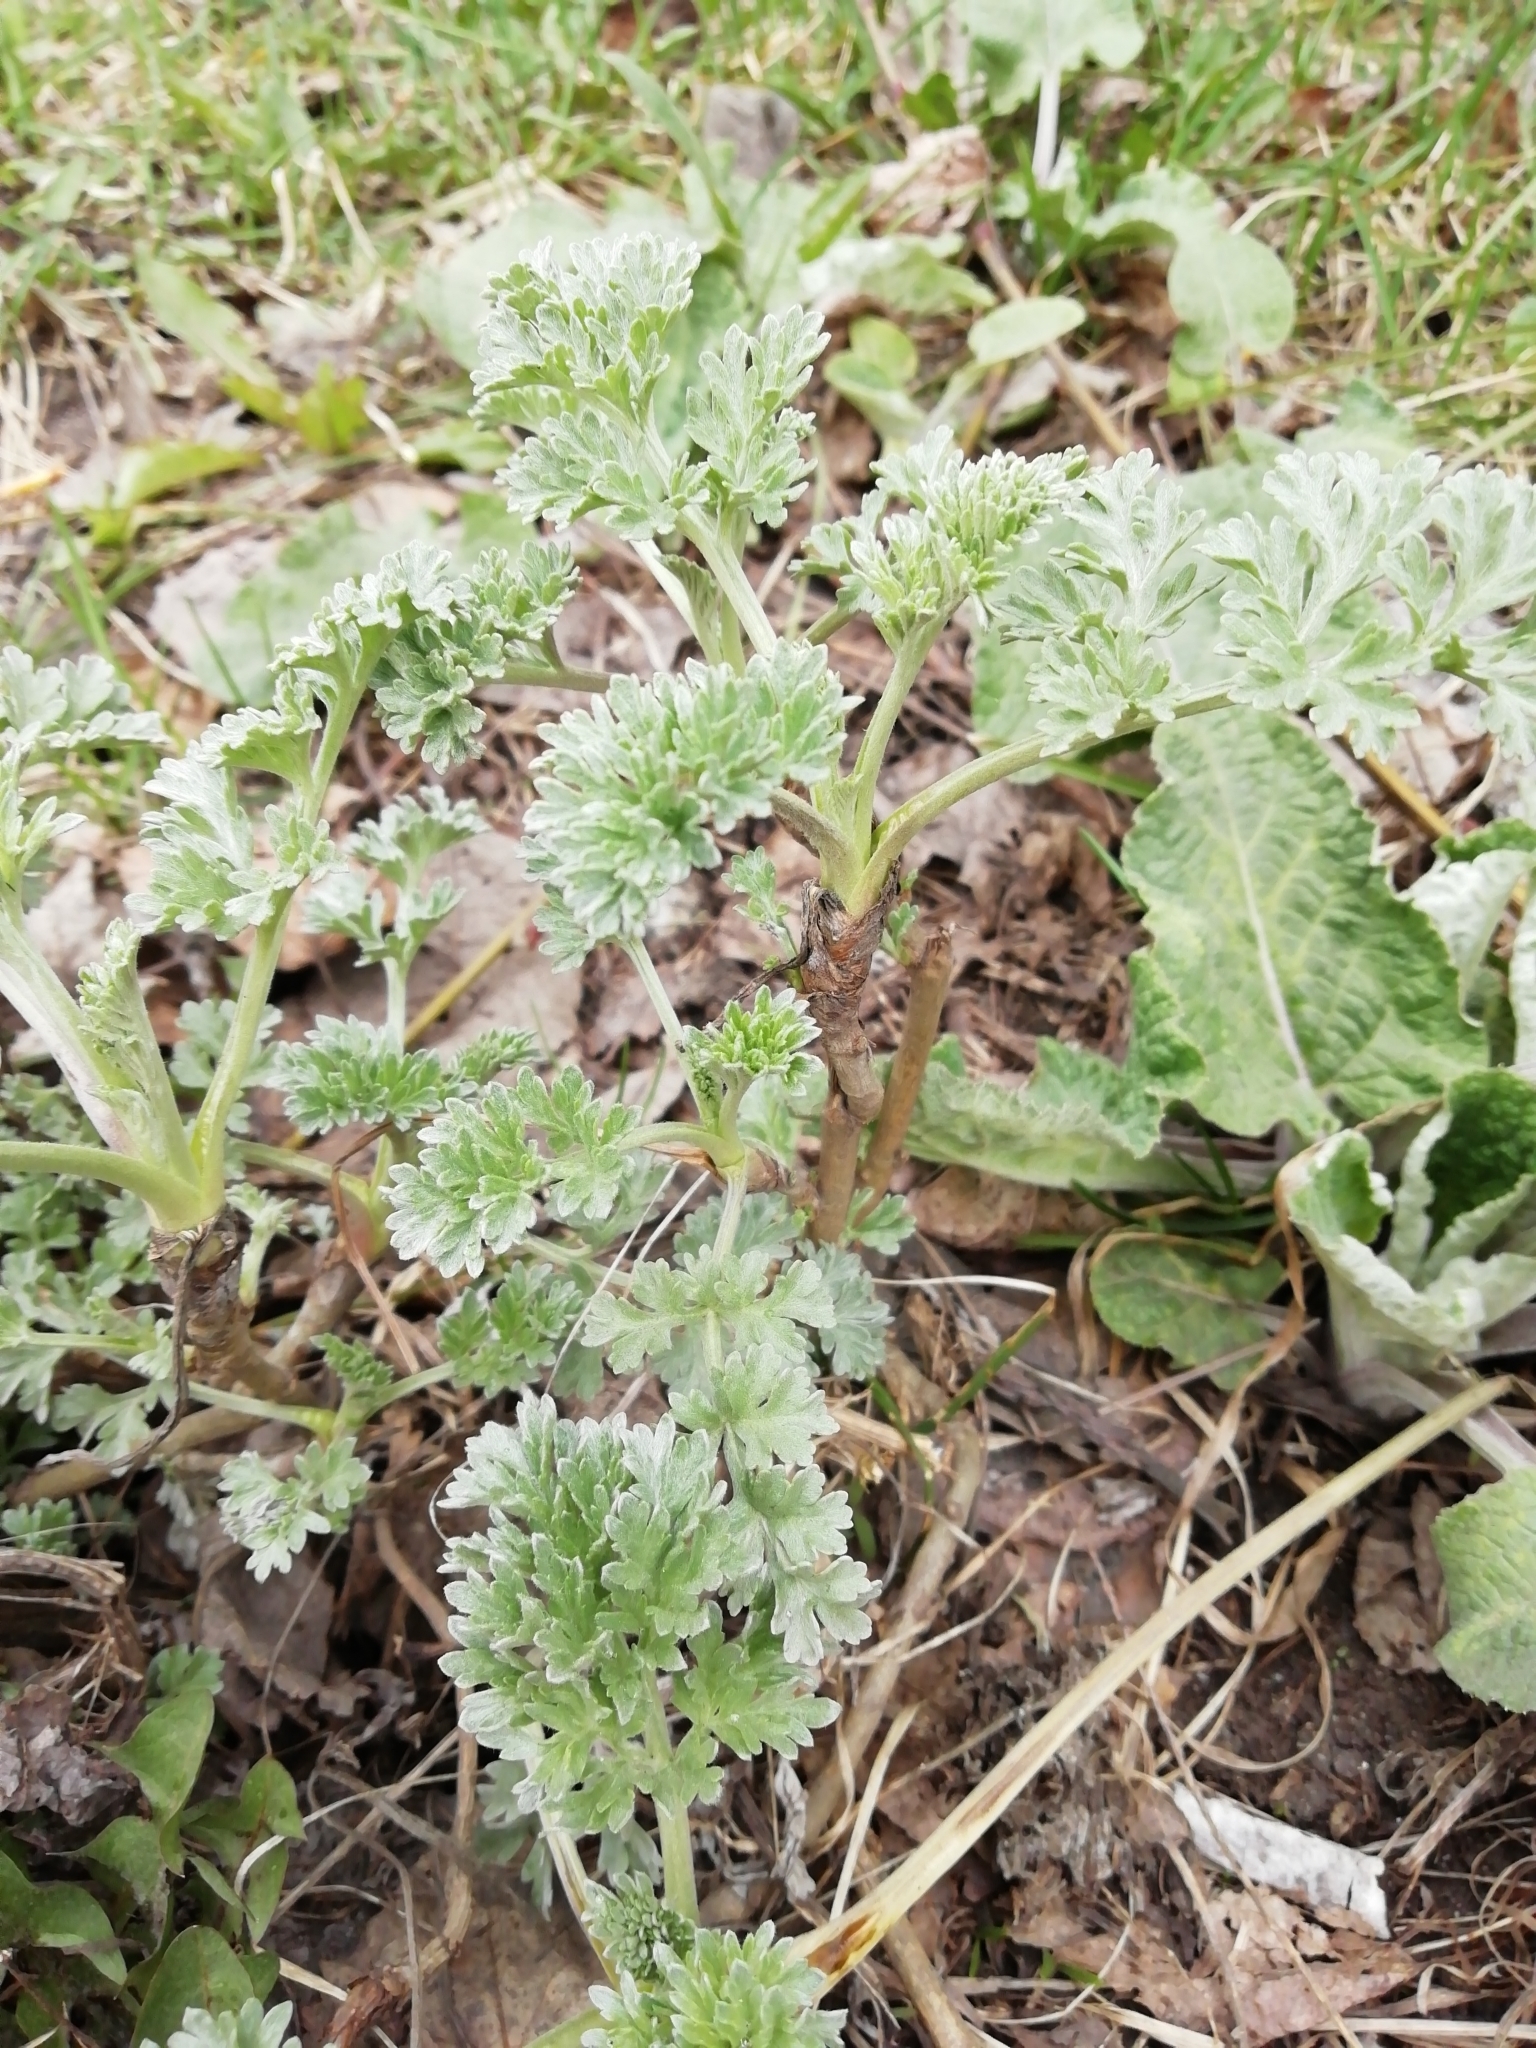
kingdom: Plantae
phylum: Tracheophyta
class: Magnoliopsida
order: Asterales
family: Asteraceae
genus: Artemisia
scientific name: Artemisia absinthium
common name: Wormwood
